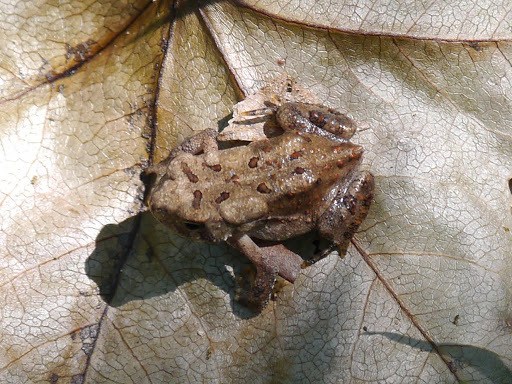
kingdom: Animalia
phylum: Chordata
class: Amphibia
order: Anura
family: Bufonidae
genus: Anaxyrus
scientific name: Anaxyrus americanus
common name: American toad
